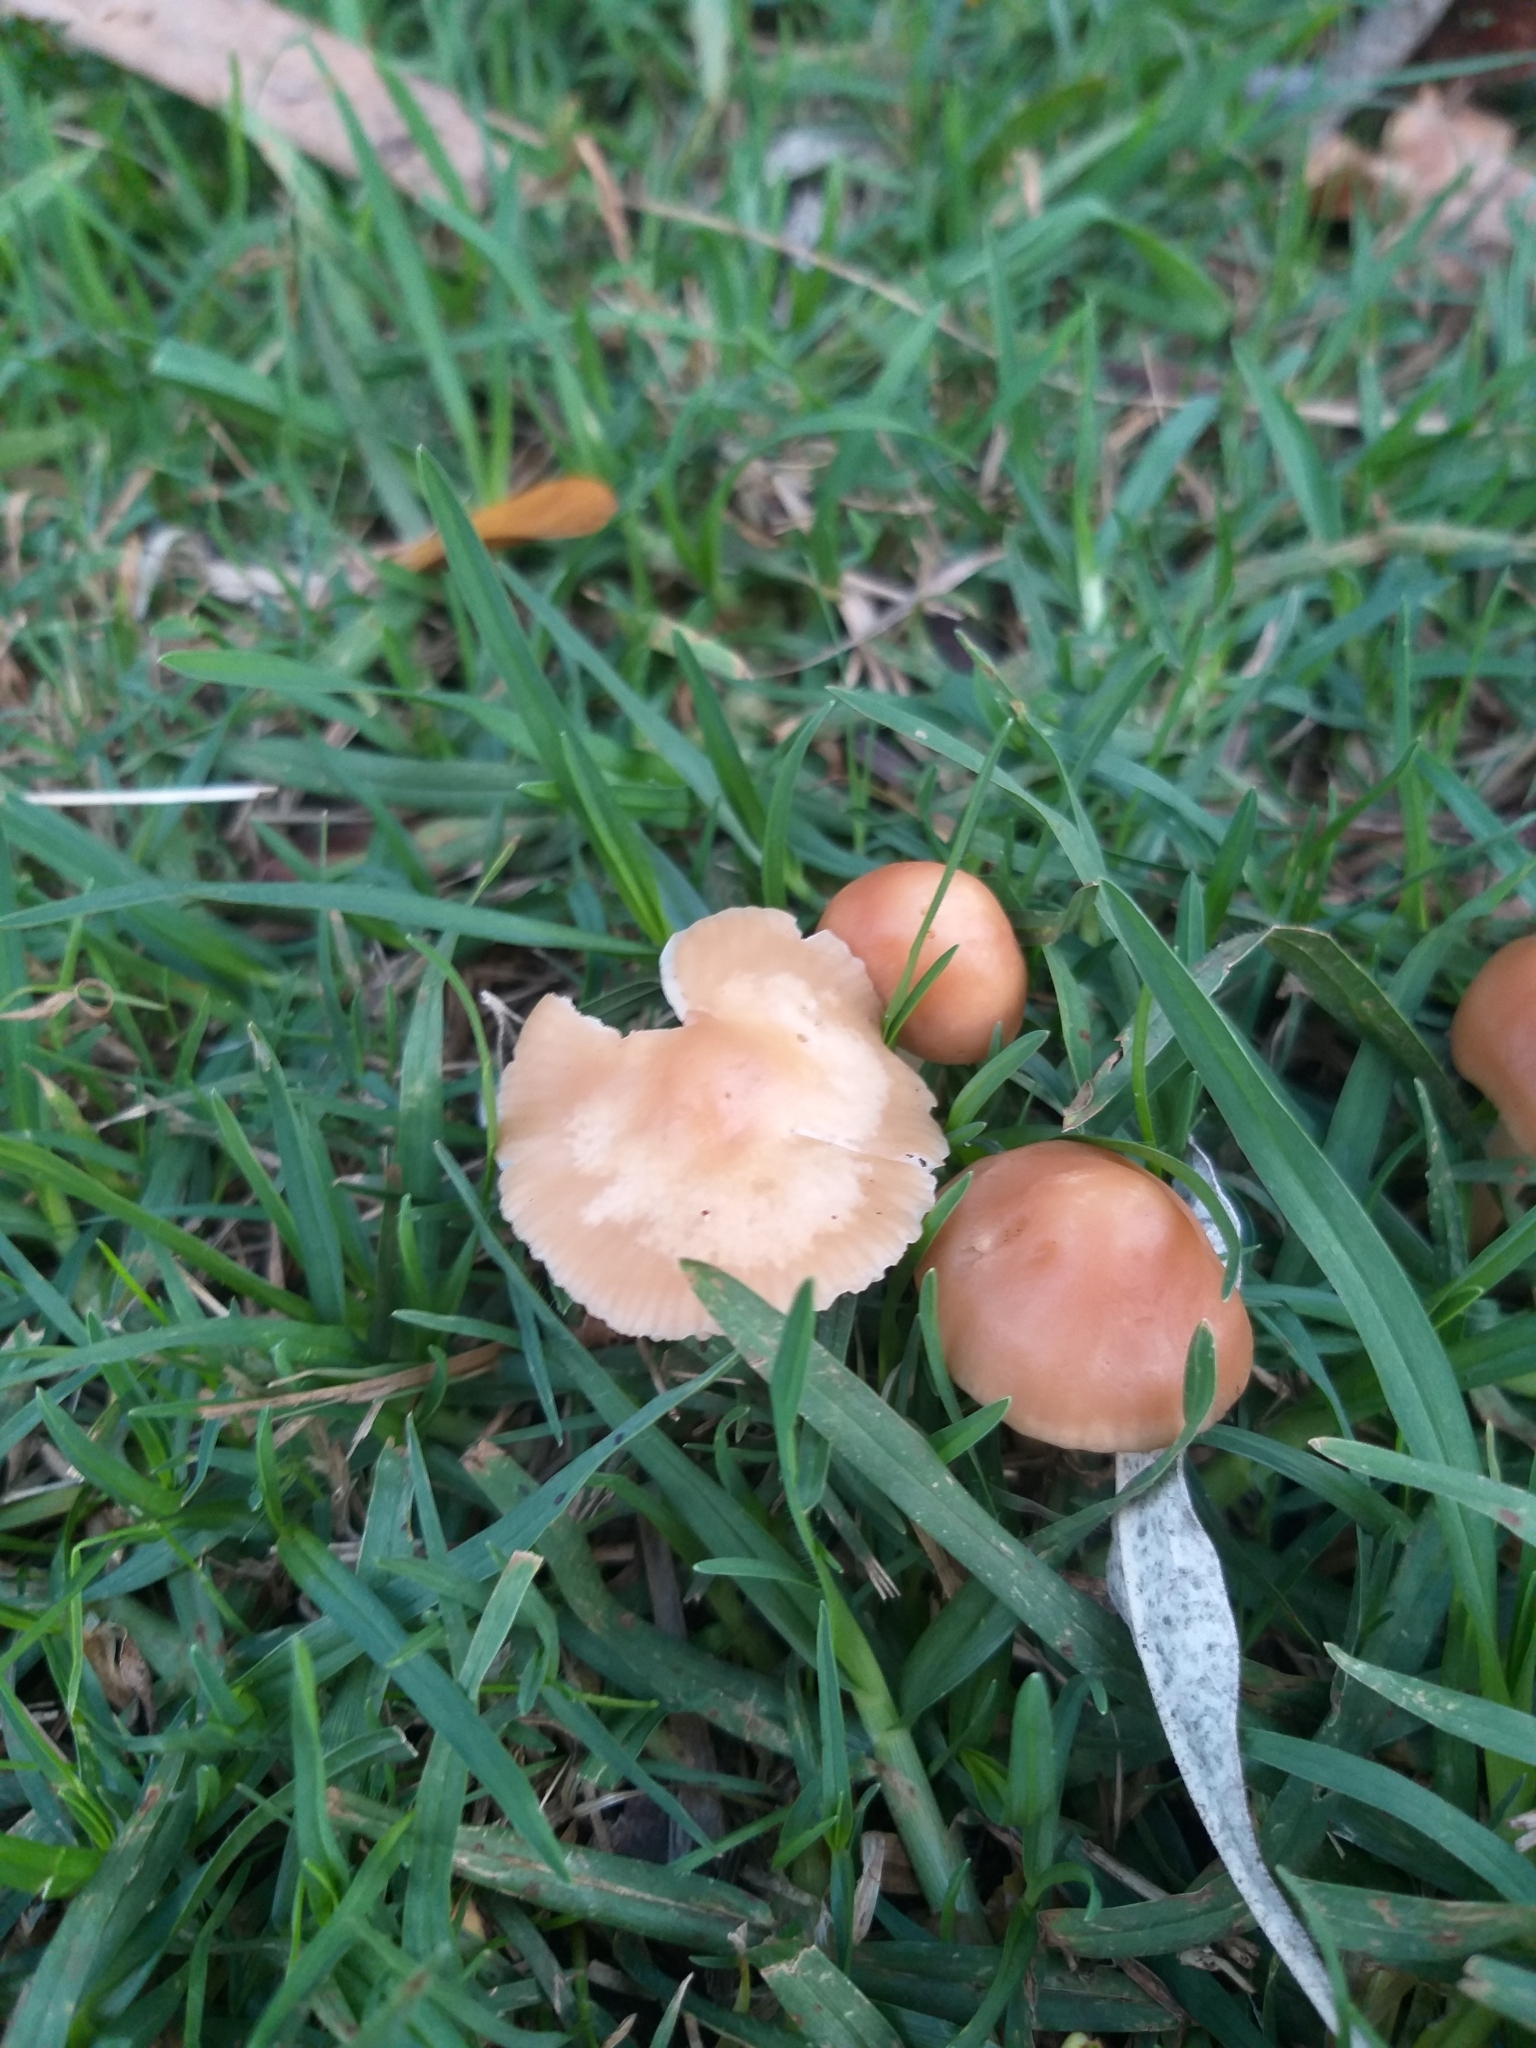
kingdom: Fungi
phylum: Basidiomycota
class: Agaricomycetes
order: Agaricales
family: Marasmiaceae
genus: Marasmius
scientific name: Marasmius oreades
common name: Fairy ring champignon
